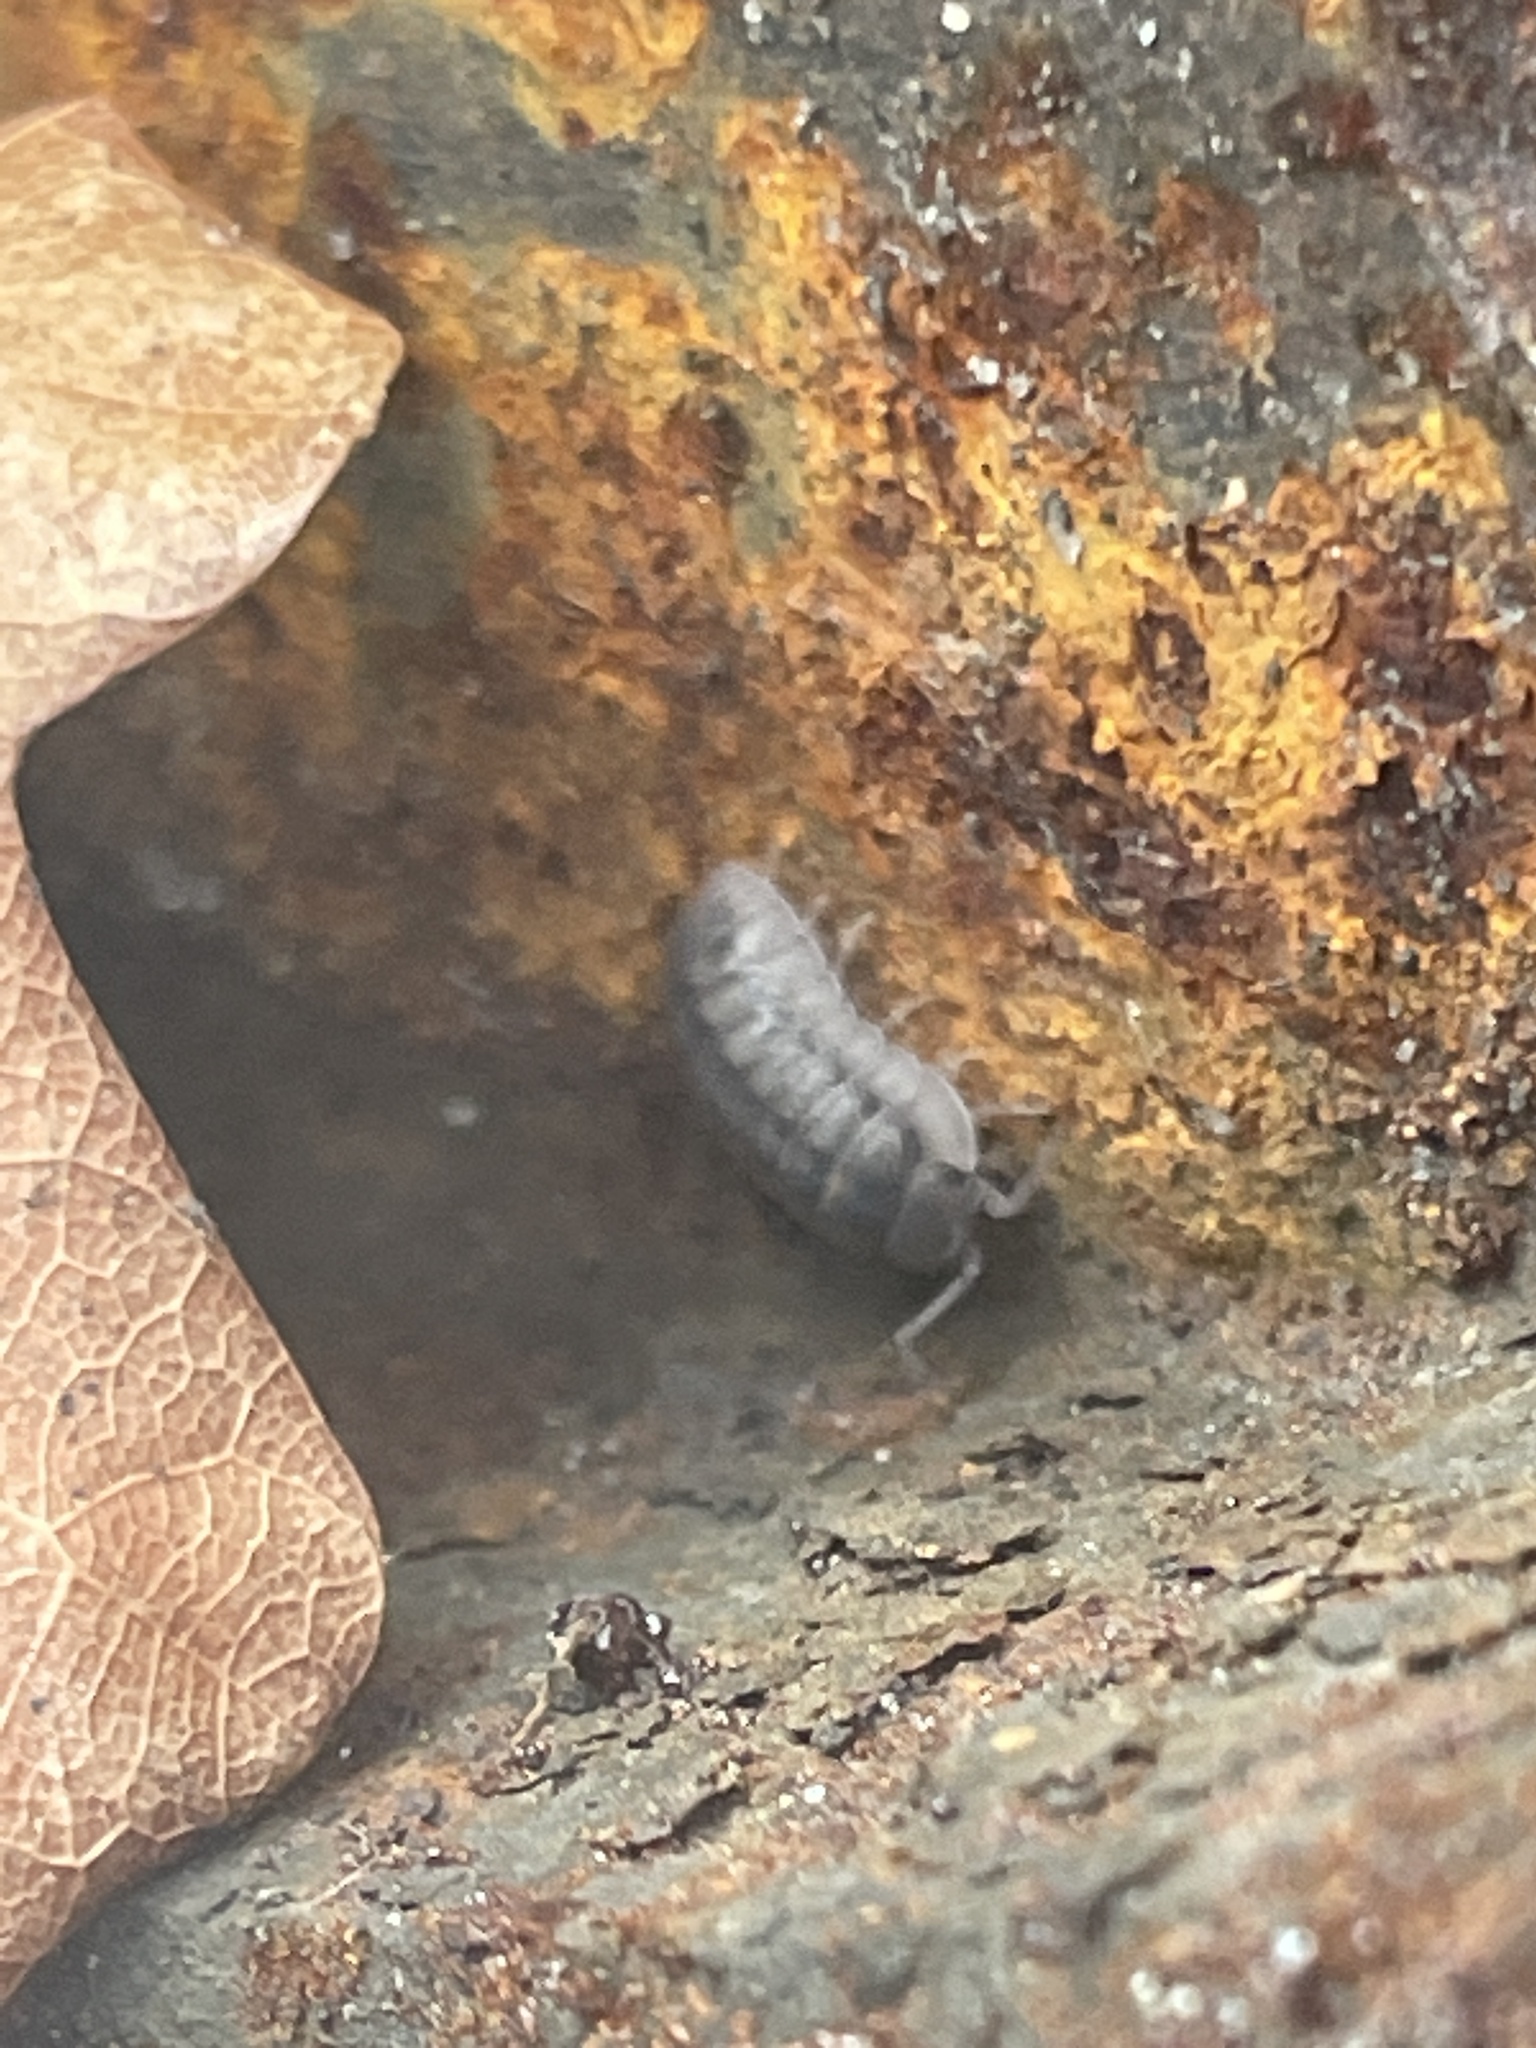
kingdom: Animalia
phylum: Arthropoda
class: Malacostraca
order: Isopoda
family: Armadillidiidae
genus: Armadillidium
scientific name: Armadillidium nasatum
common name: Isopod
